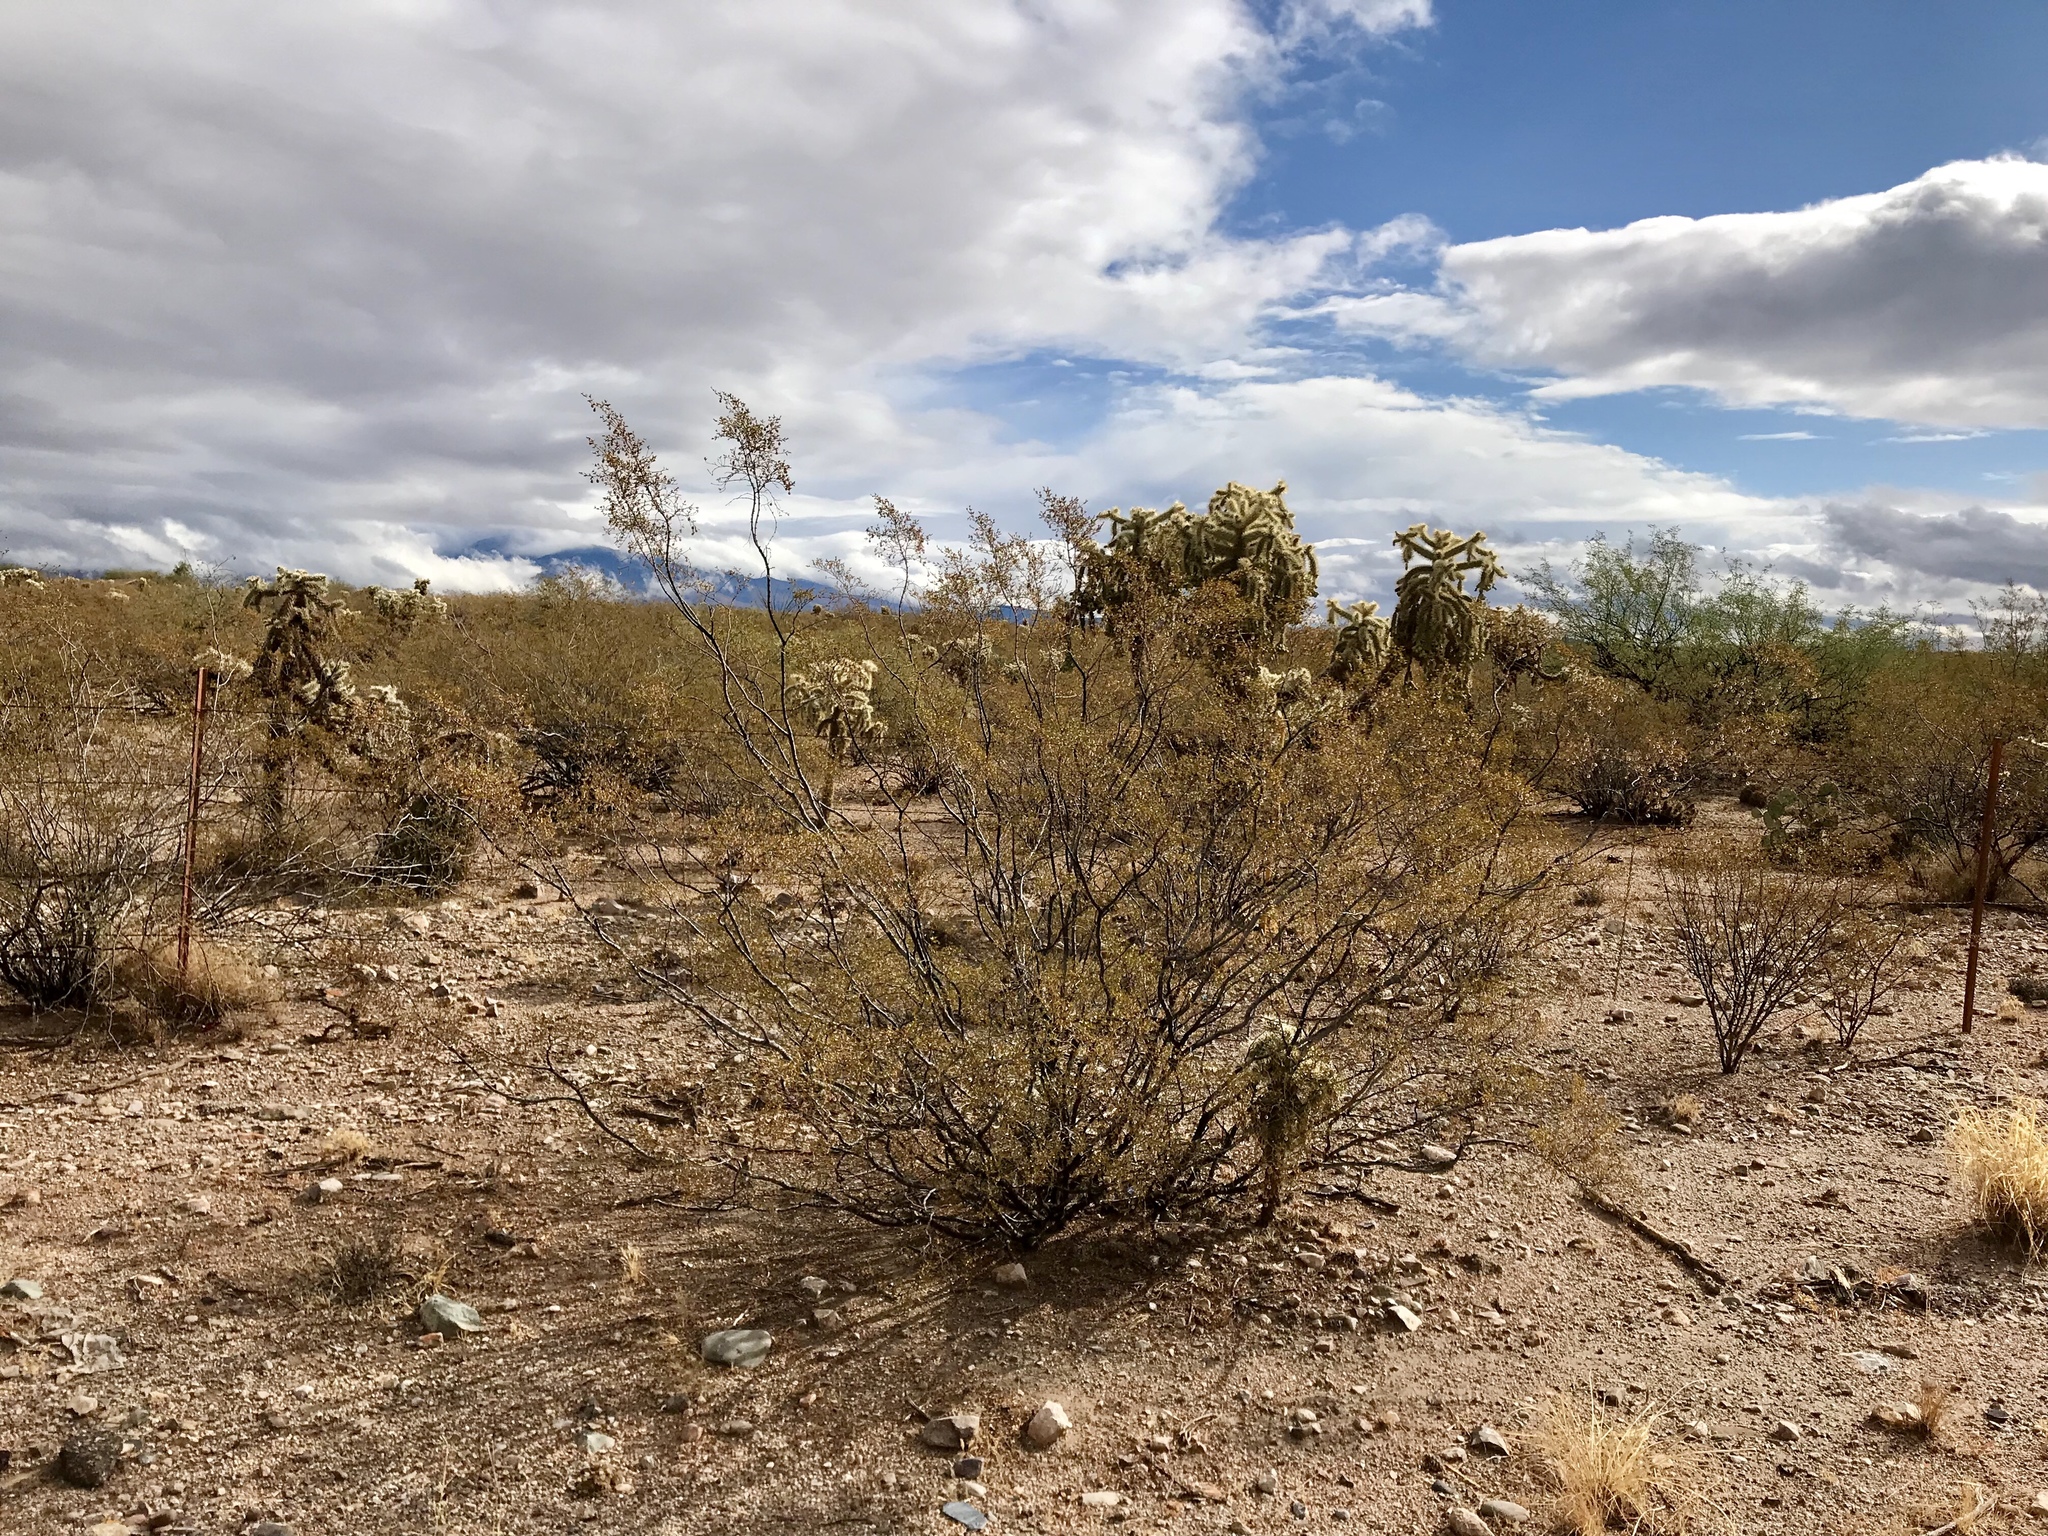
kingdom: Plantae
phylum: Tracheophyta
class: Magnoliopsida
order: Zygophyllales
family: Zygophyllaceae
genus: Larrea
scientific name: Larrea tridentata
